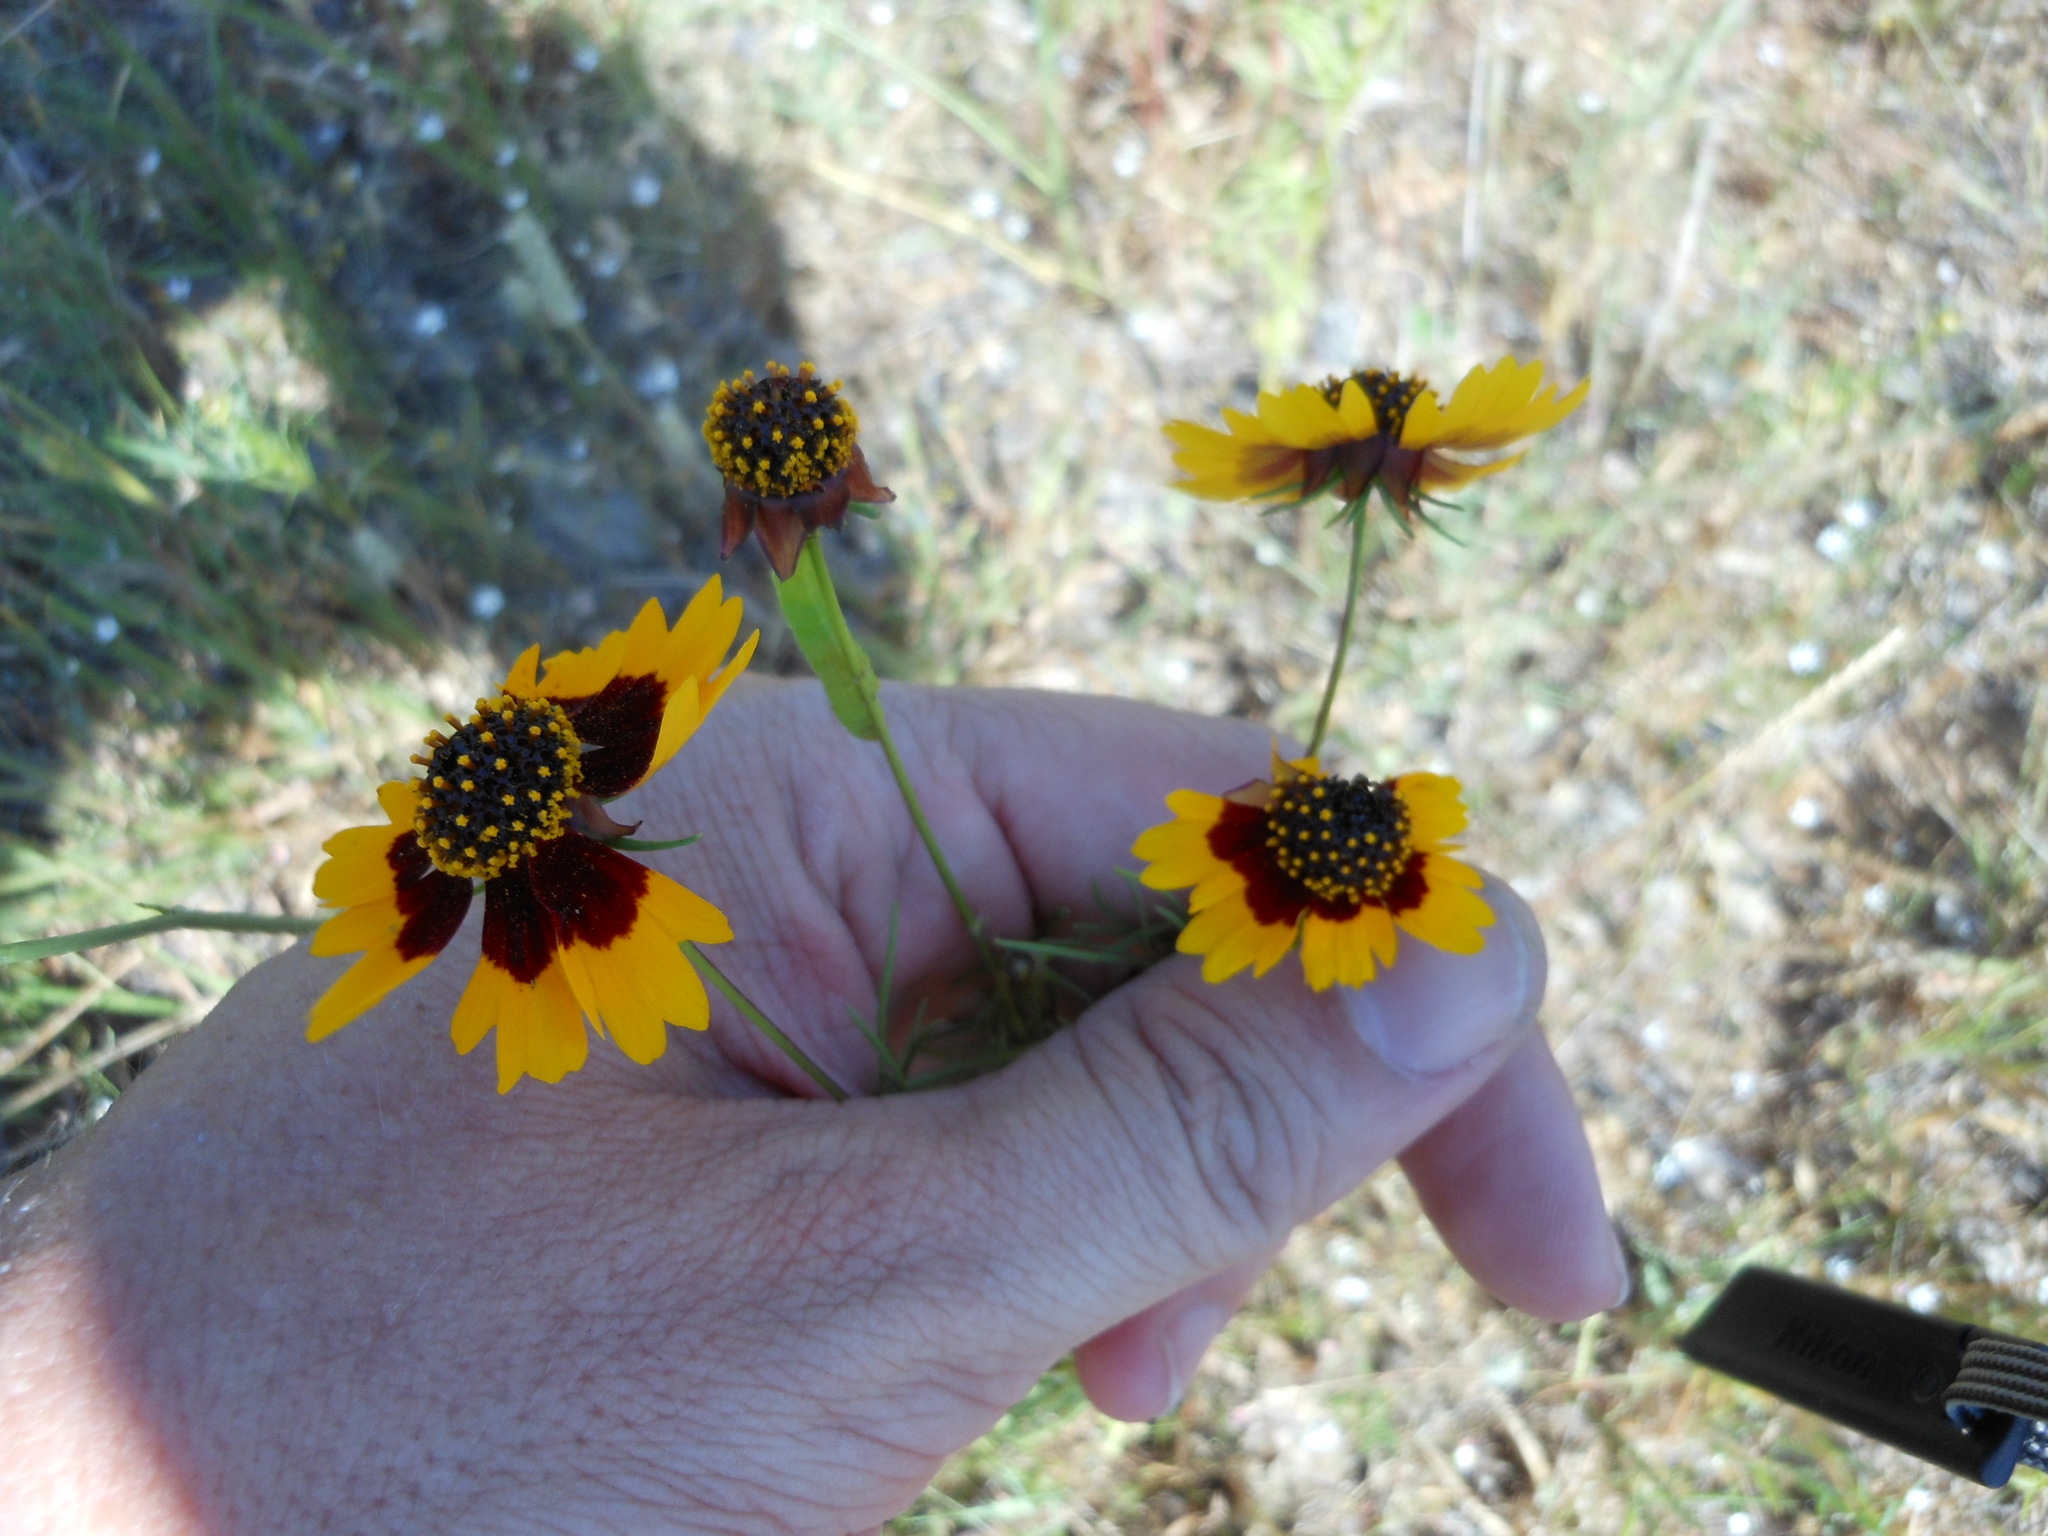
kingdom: Plantae
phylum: Tracheophyta
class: Magnoliopsida
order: Asterales
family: Asteraceae
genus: Thelesperma
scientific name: Thelesperma filifolium
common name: Stiff greenthread
